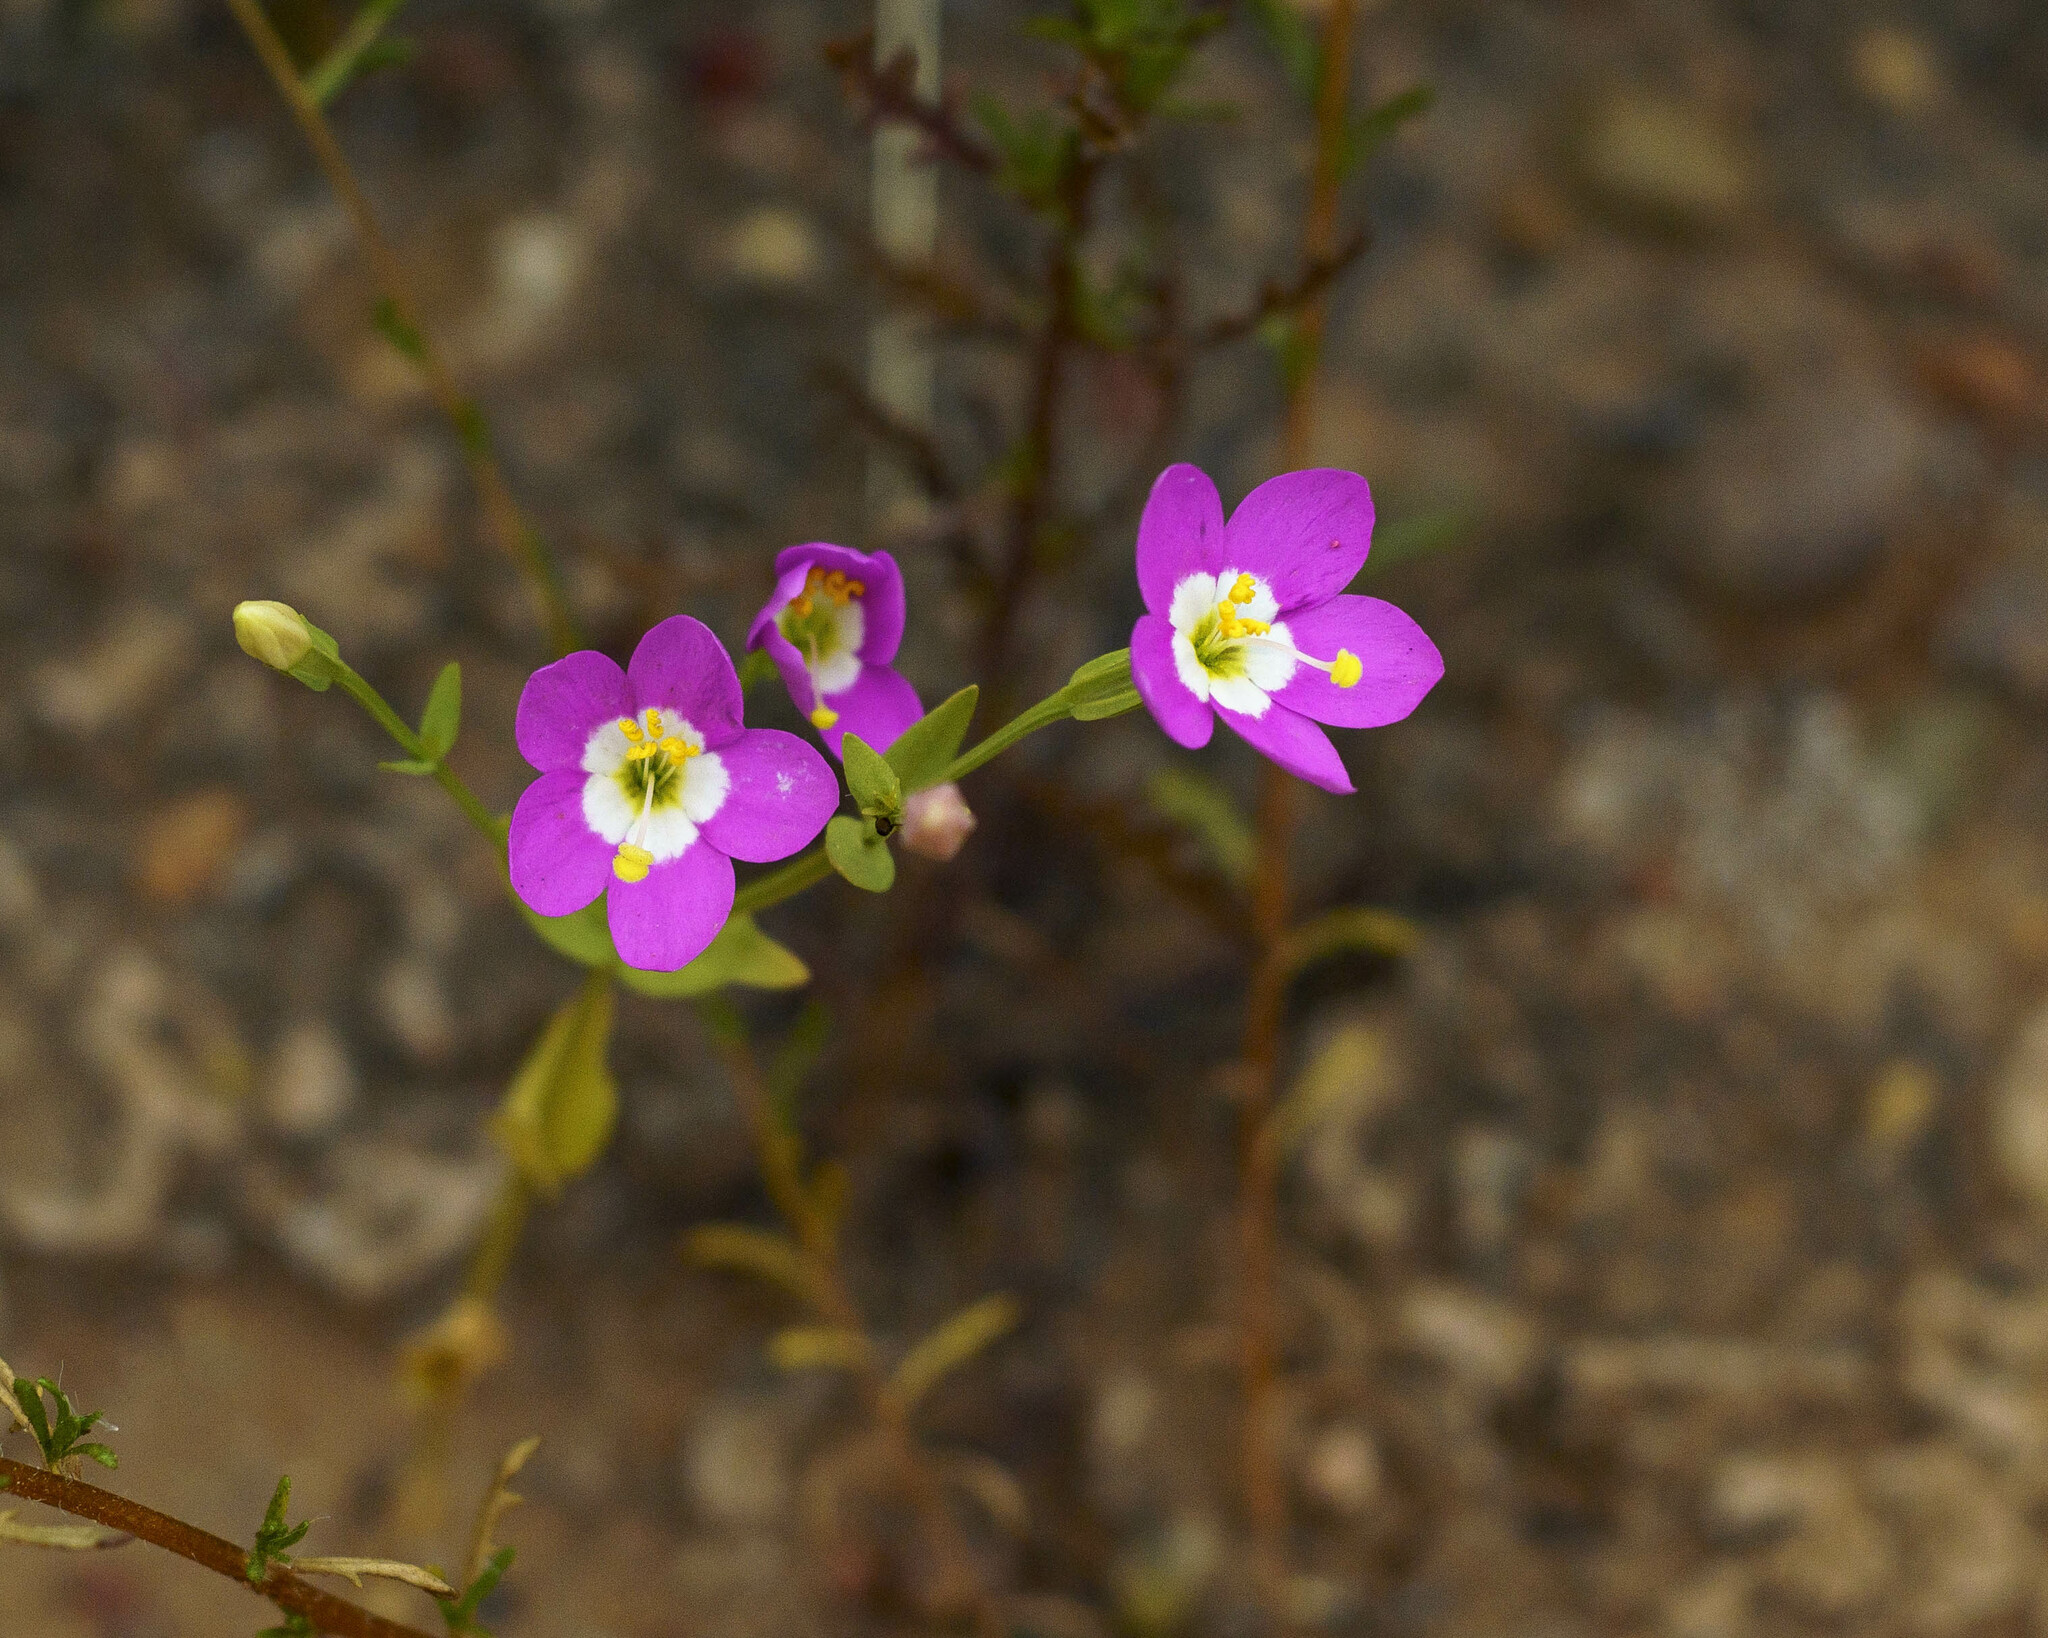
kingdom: Plantae
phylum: Tracheophyta
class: Magnoliopsida
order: Gentianales
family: Gentianaceae
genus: Zeltnera
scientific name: Zeltnera venusta
